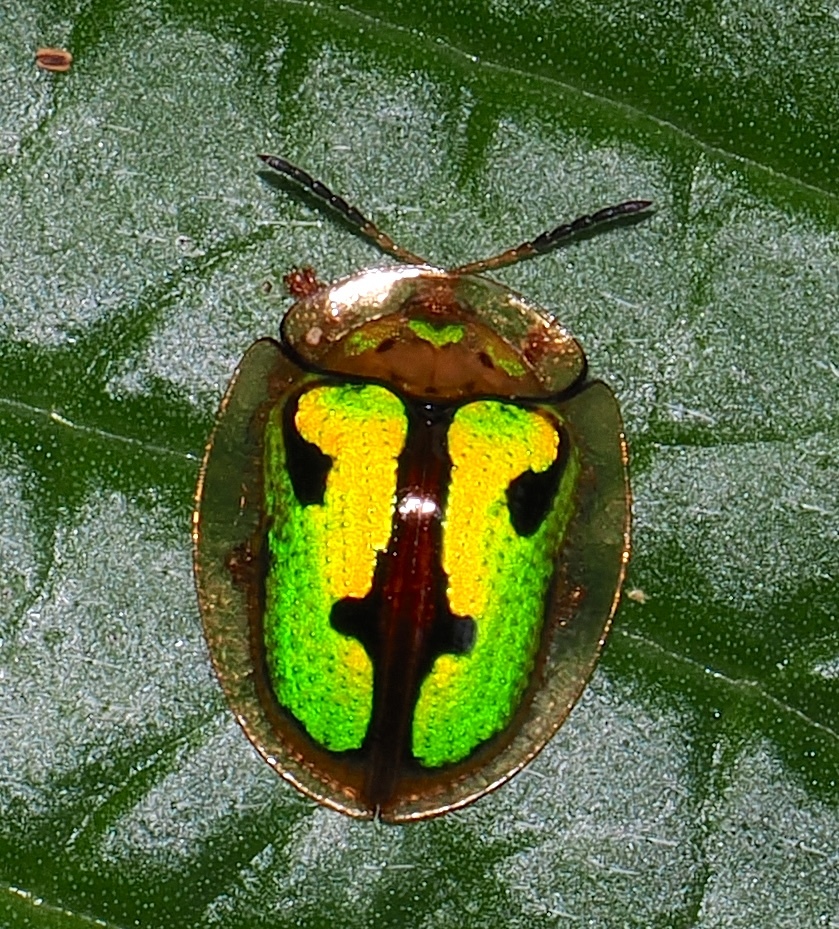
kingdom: Animalia
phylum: Arthropoda
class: Insecta
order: Coleoptera
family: Chrysomelidae
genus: Coptocycla
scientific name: Coptocycla fastidiosa
